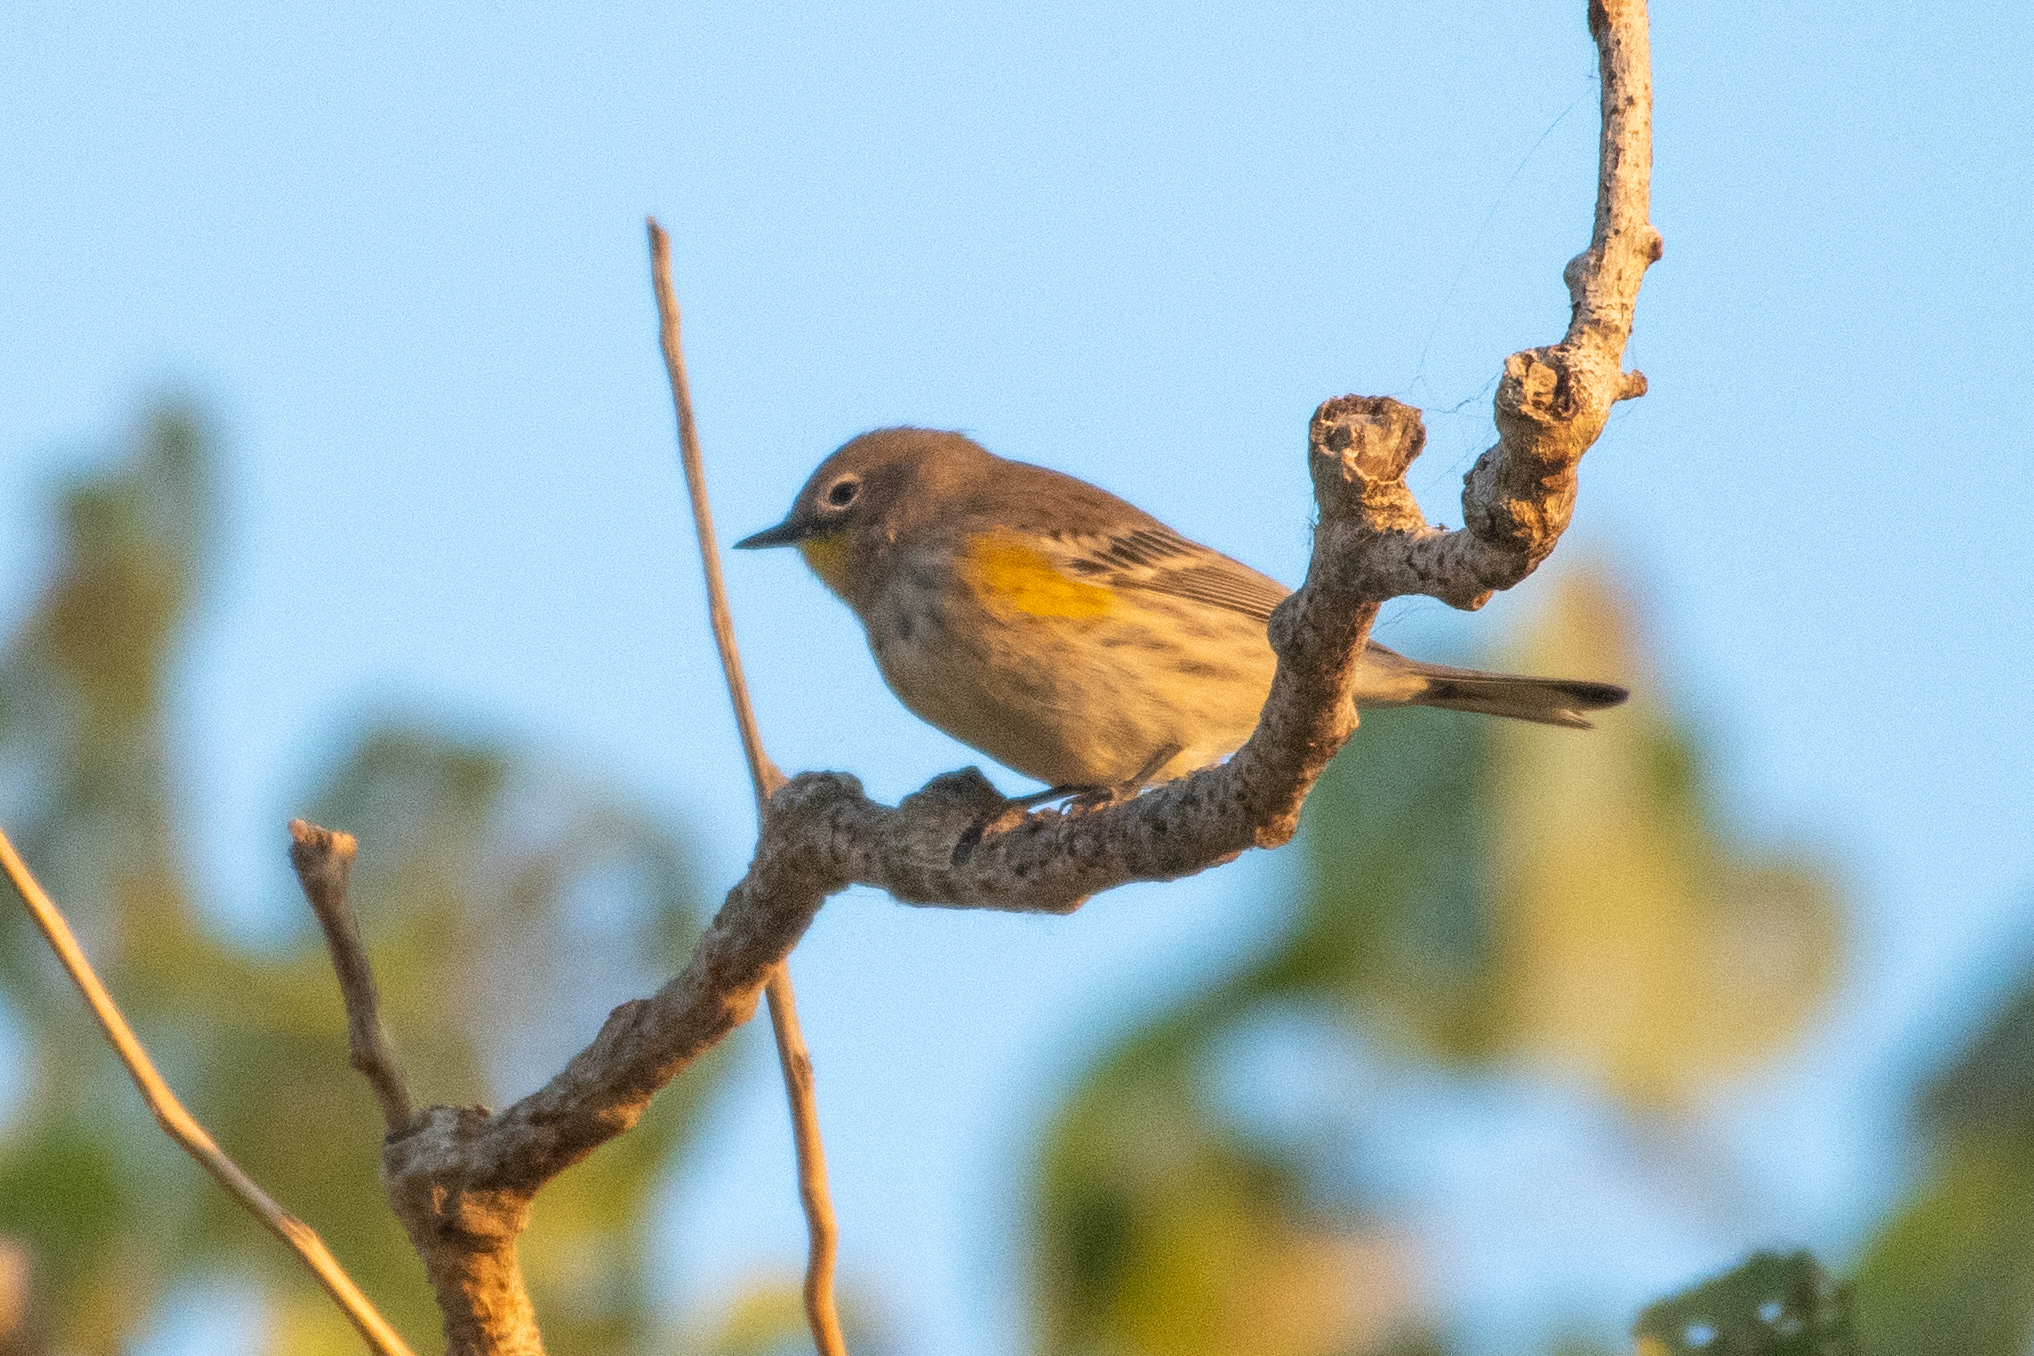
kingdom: Animalia
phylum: Chordata
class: Aves
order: Passeriformes
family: Parulidae
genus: Setophaga
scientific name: Setophaga coronata
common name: Myrtle warbler
